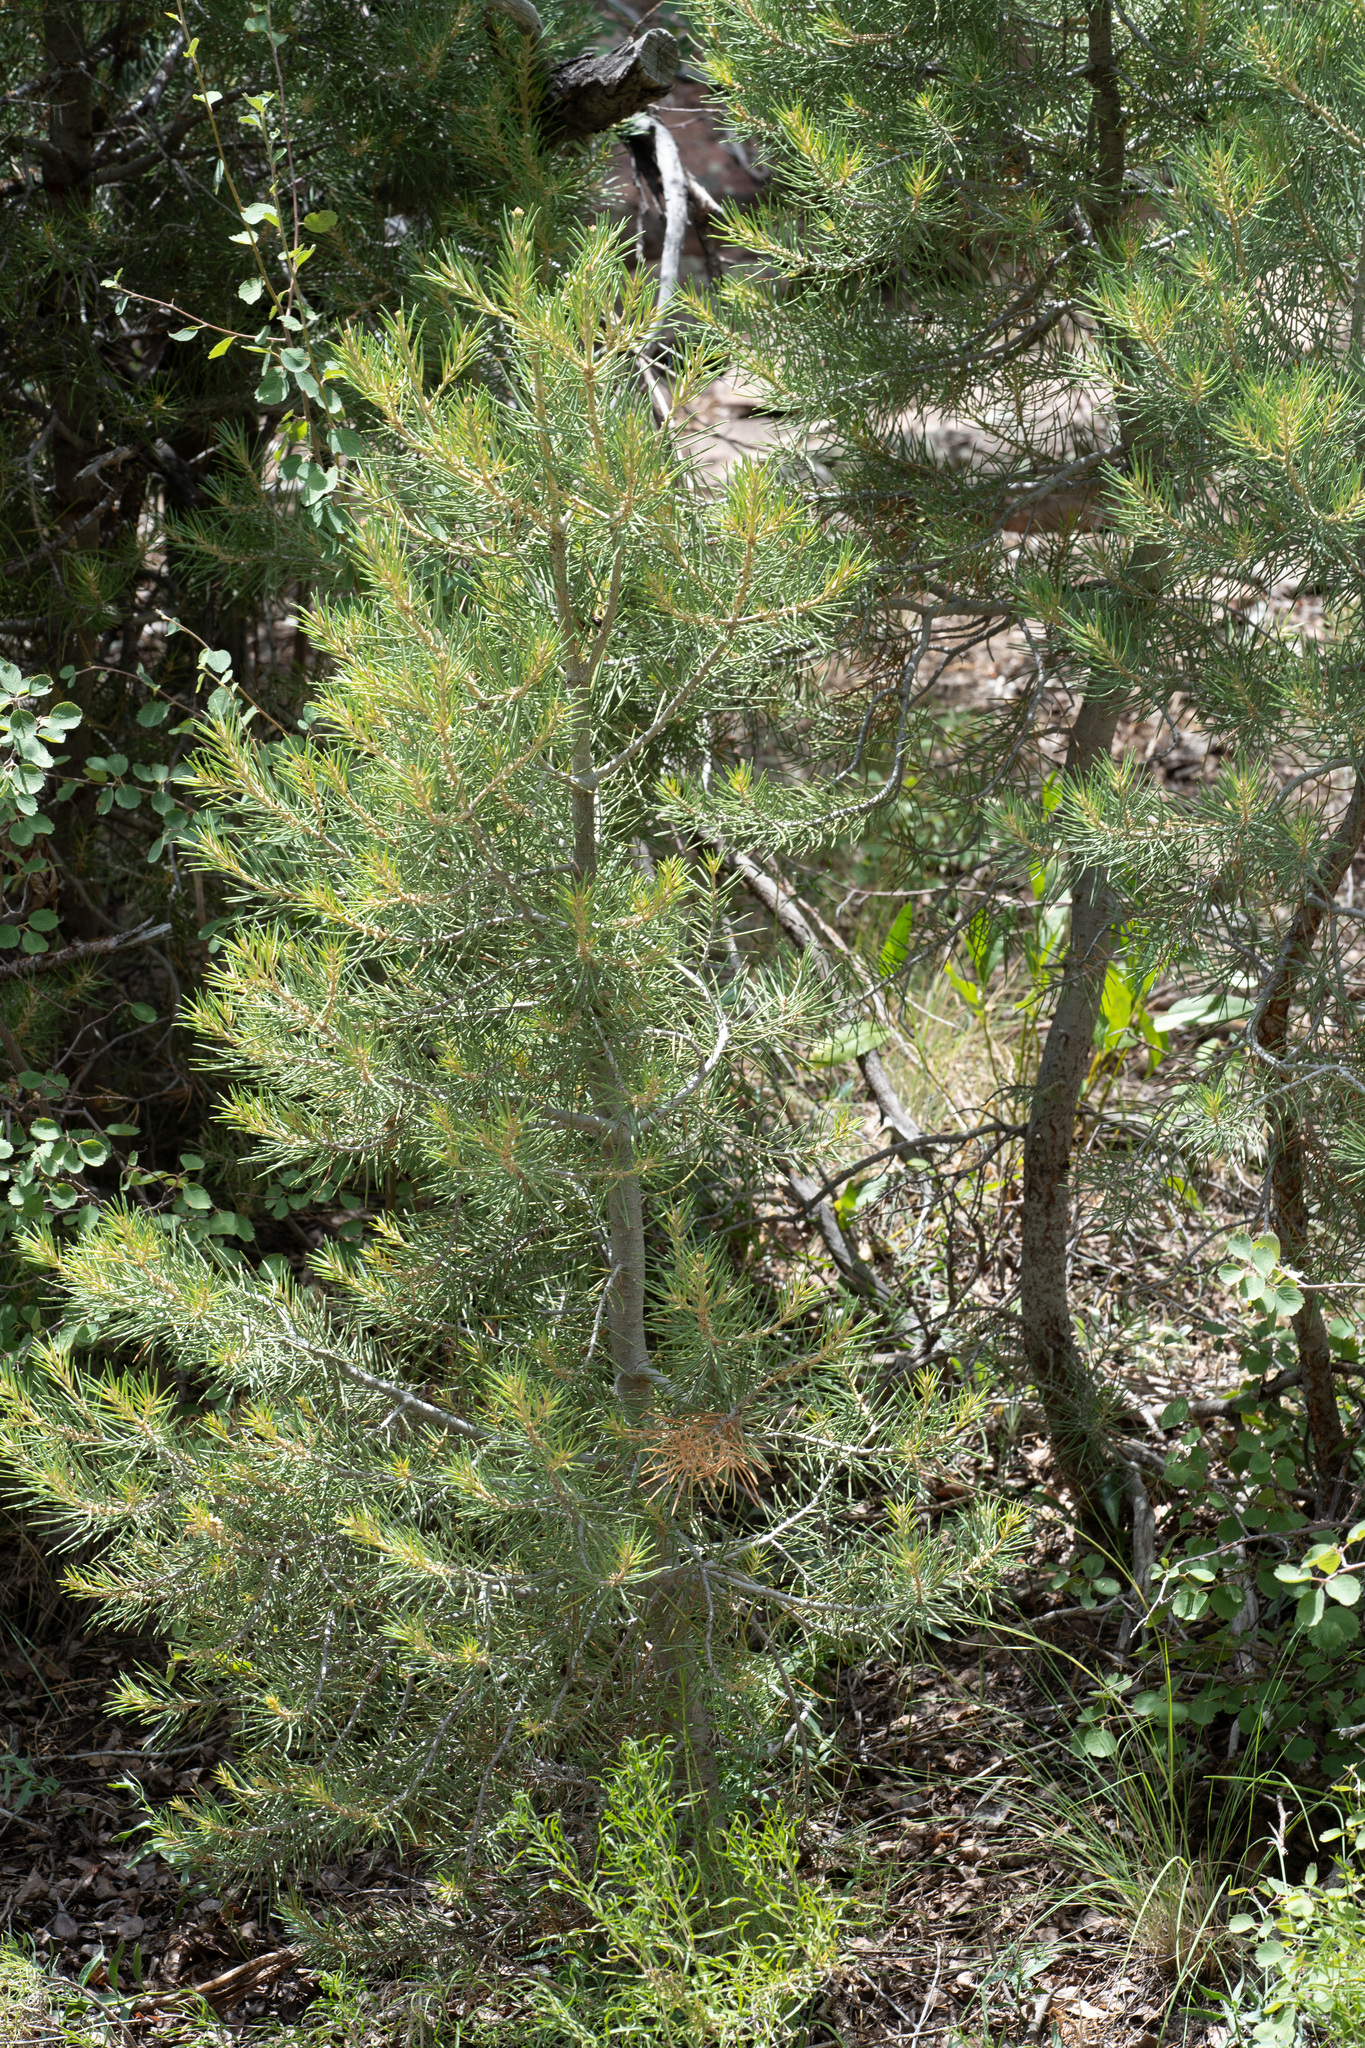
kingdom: Plantae
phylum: Tracheophyta
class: Pinopsida
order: Pinales
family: Pinaceae
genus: Pinus
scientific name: Pinus monophylla
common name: One-leaved nut pine
